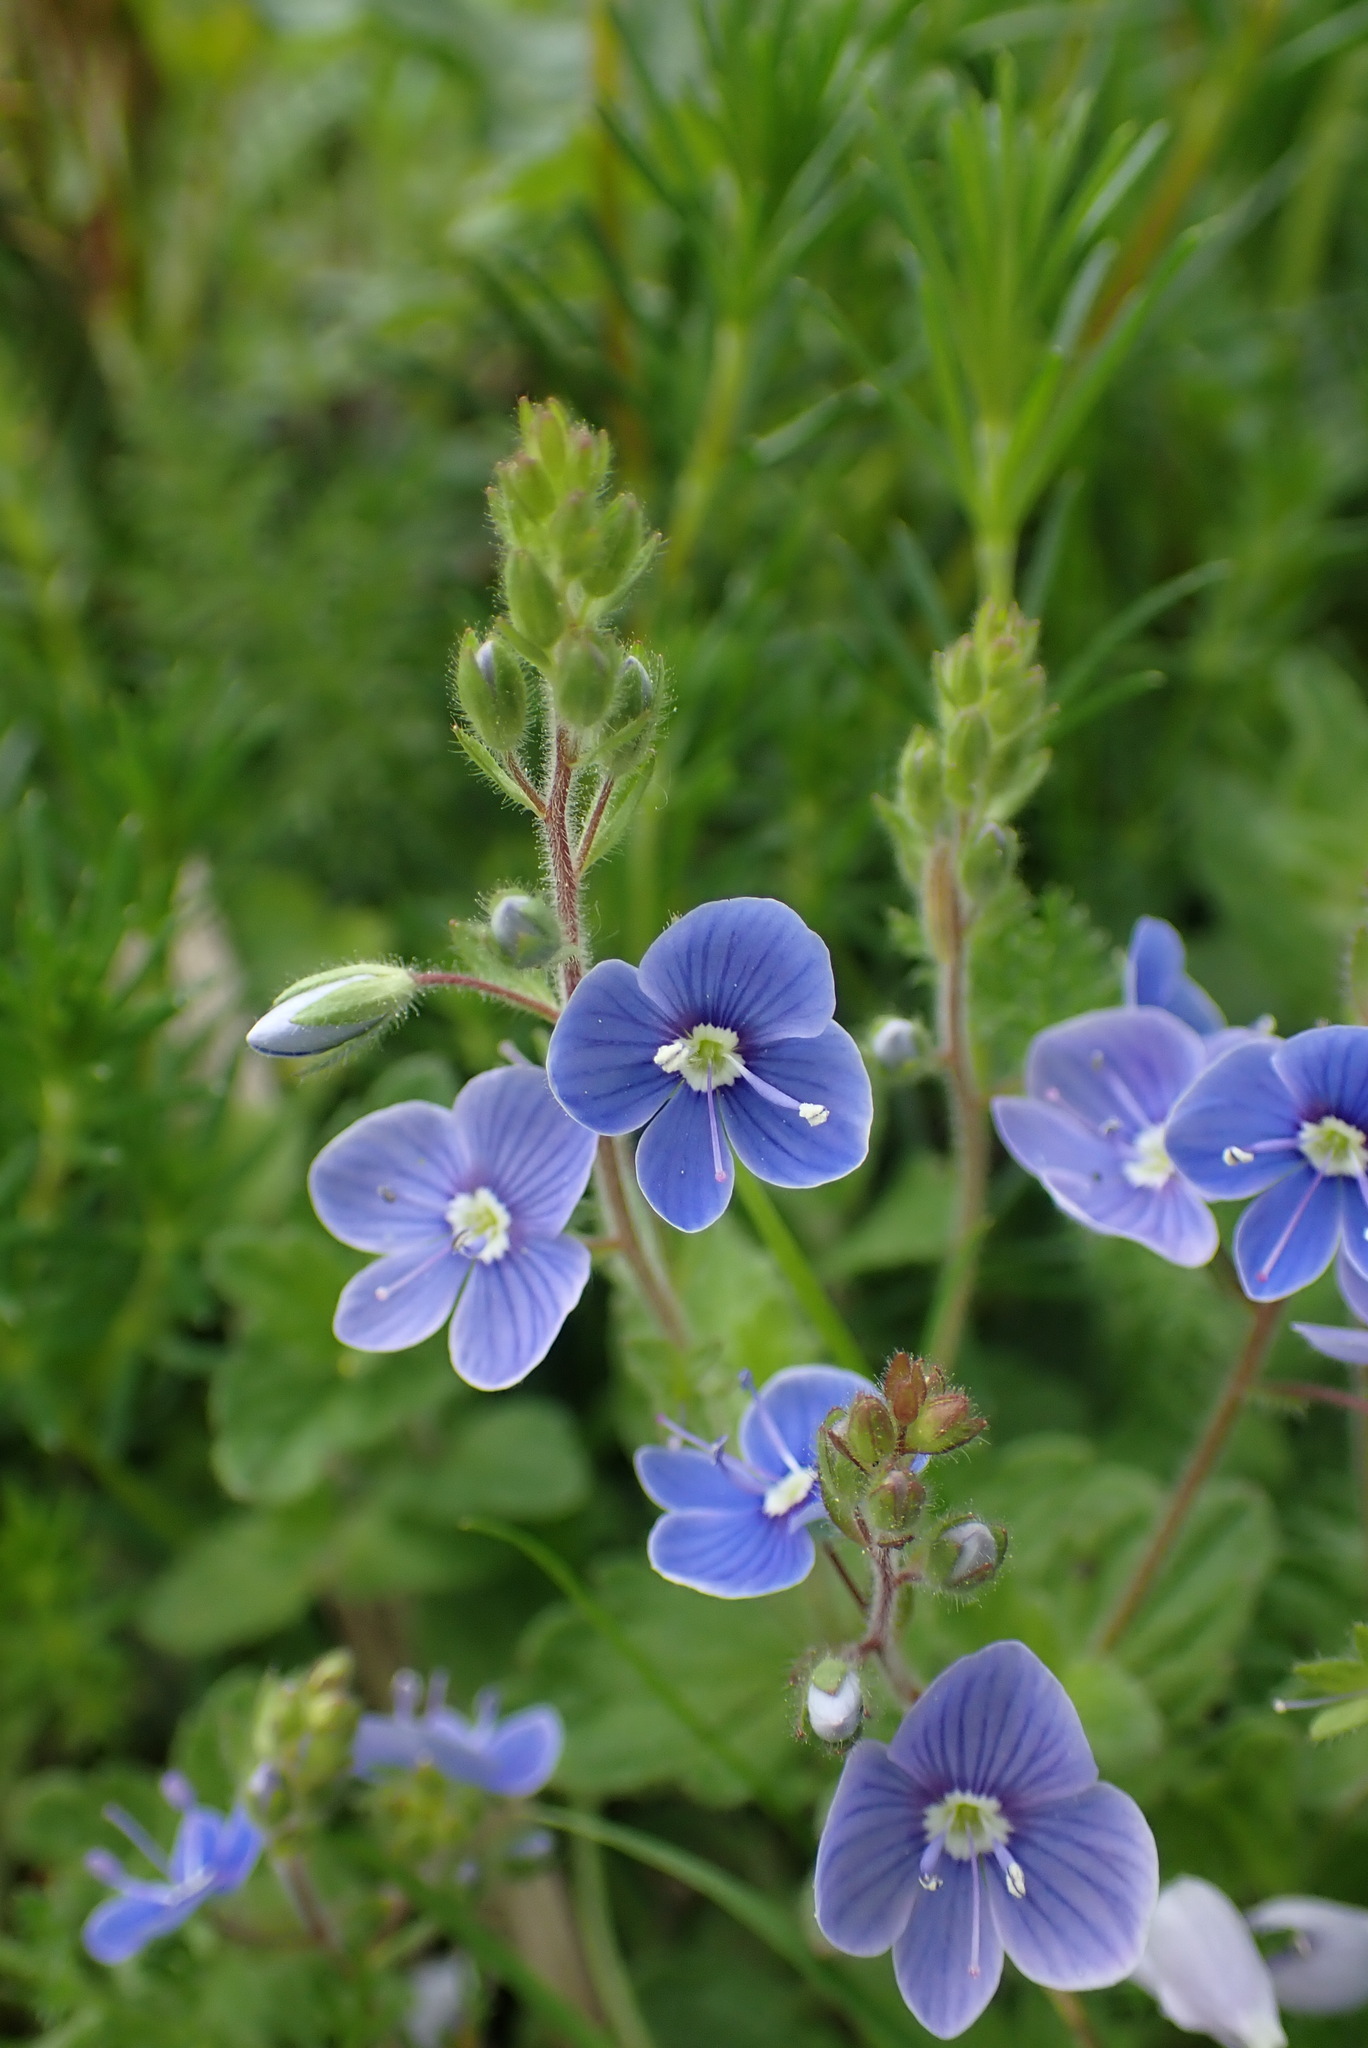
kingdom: Plantae
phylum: Tracheophyta
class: Magnoliopsida
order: Lamiales
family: Plantaginaceae
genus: Veronica
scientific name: Veronica chamaedrys
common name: Germander speedwell
